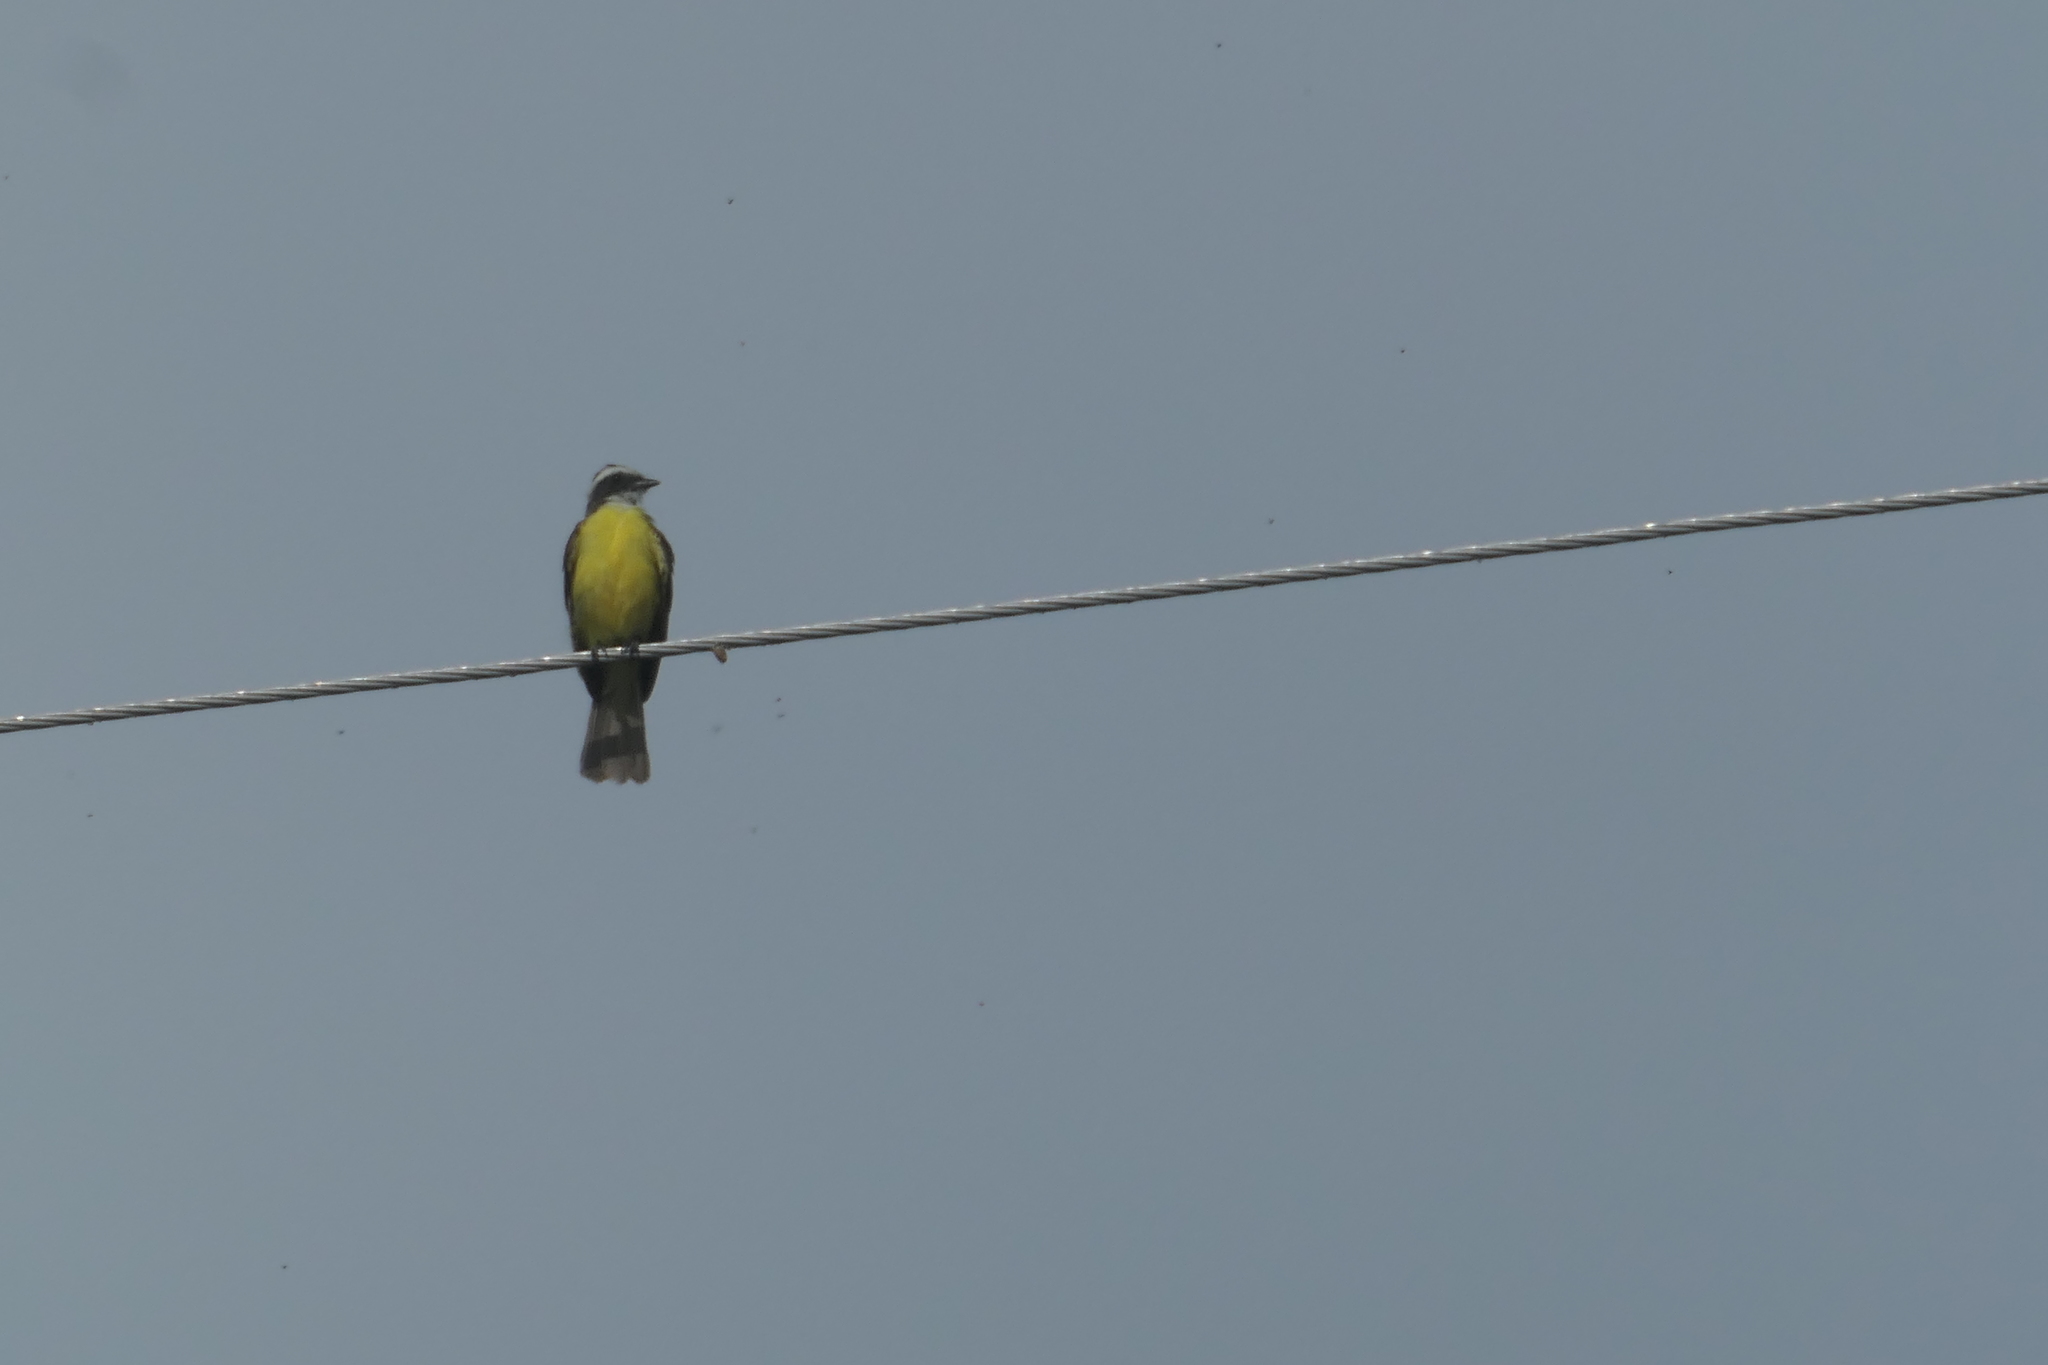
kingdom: Animalia
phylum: Chordata
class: Aves
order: Passeriformes
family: Tyrannidae
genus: Myiozetetes
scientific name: Myiozetetes similis
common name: Social flycatcher
